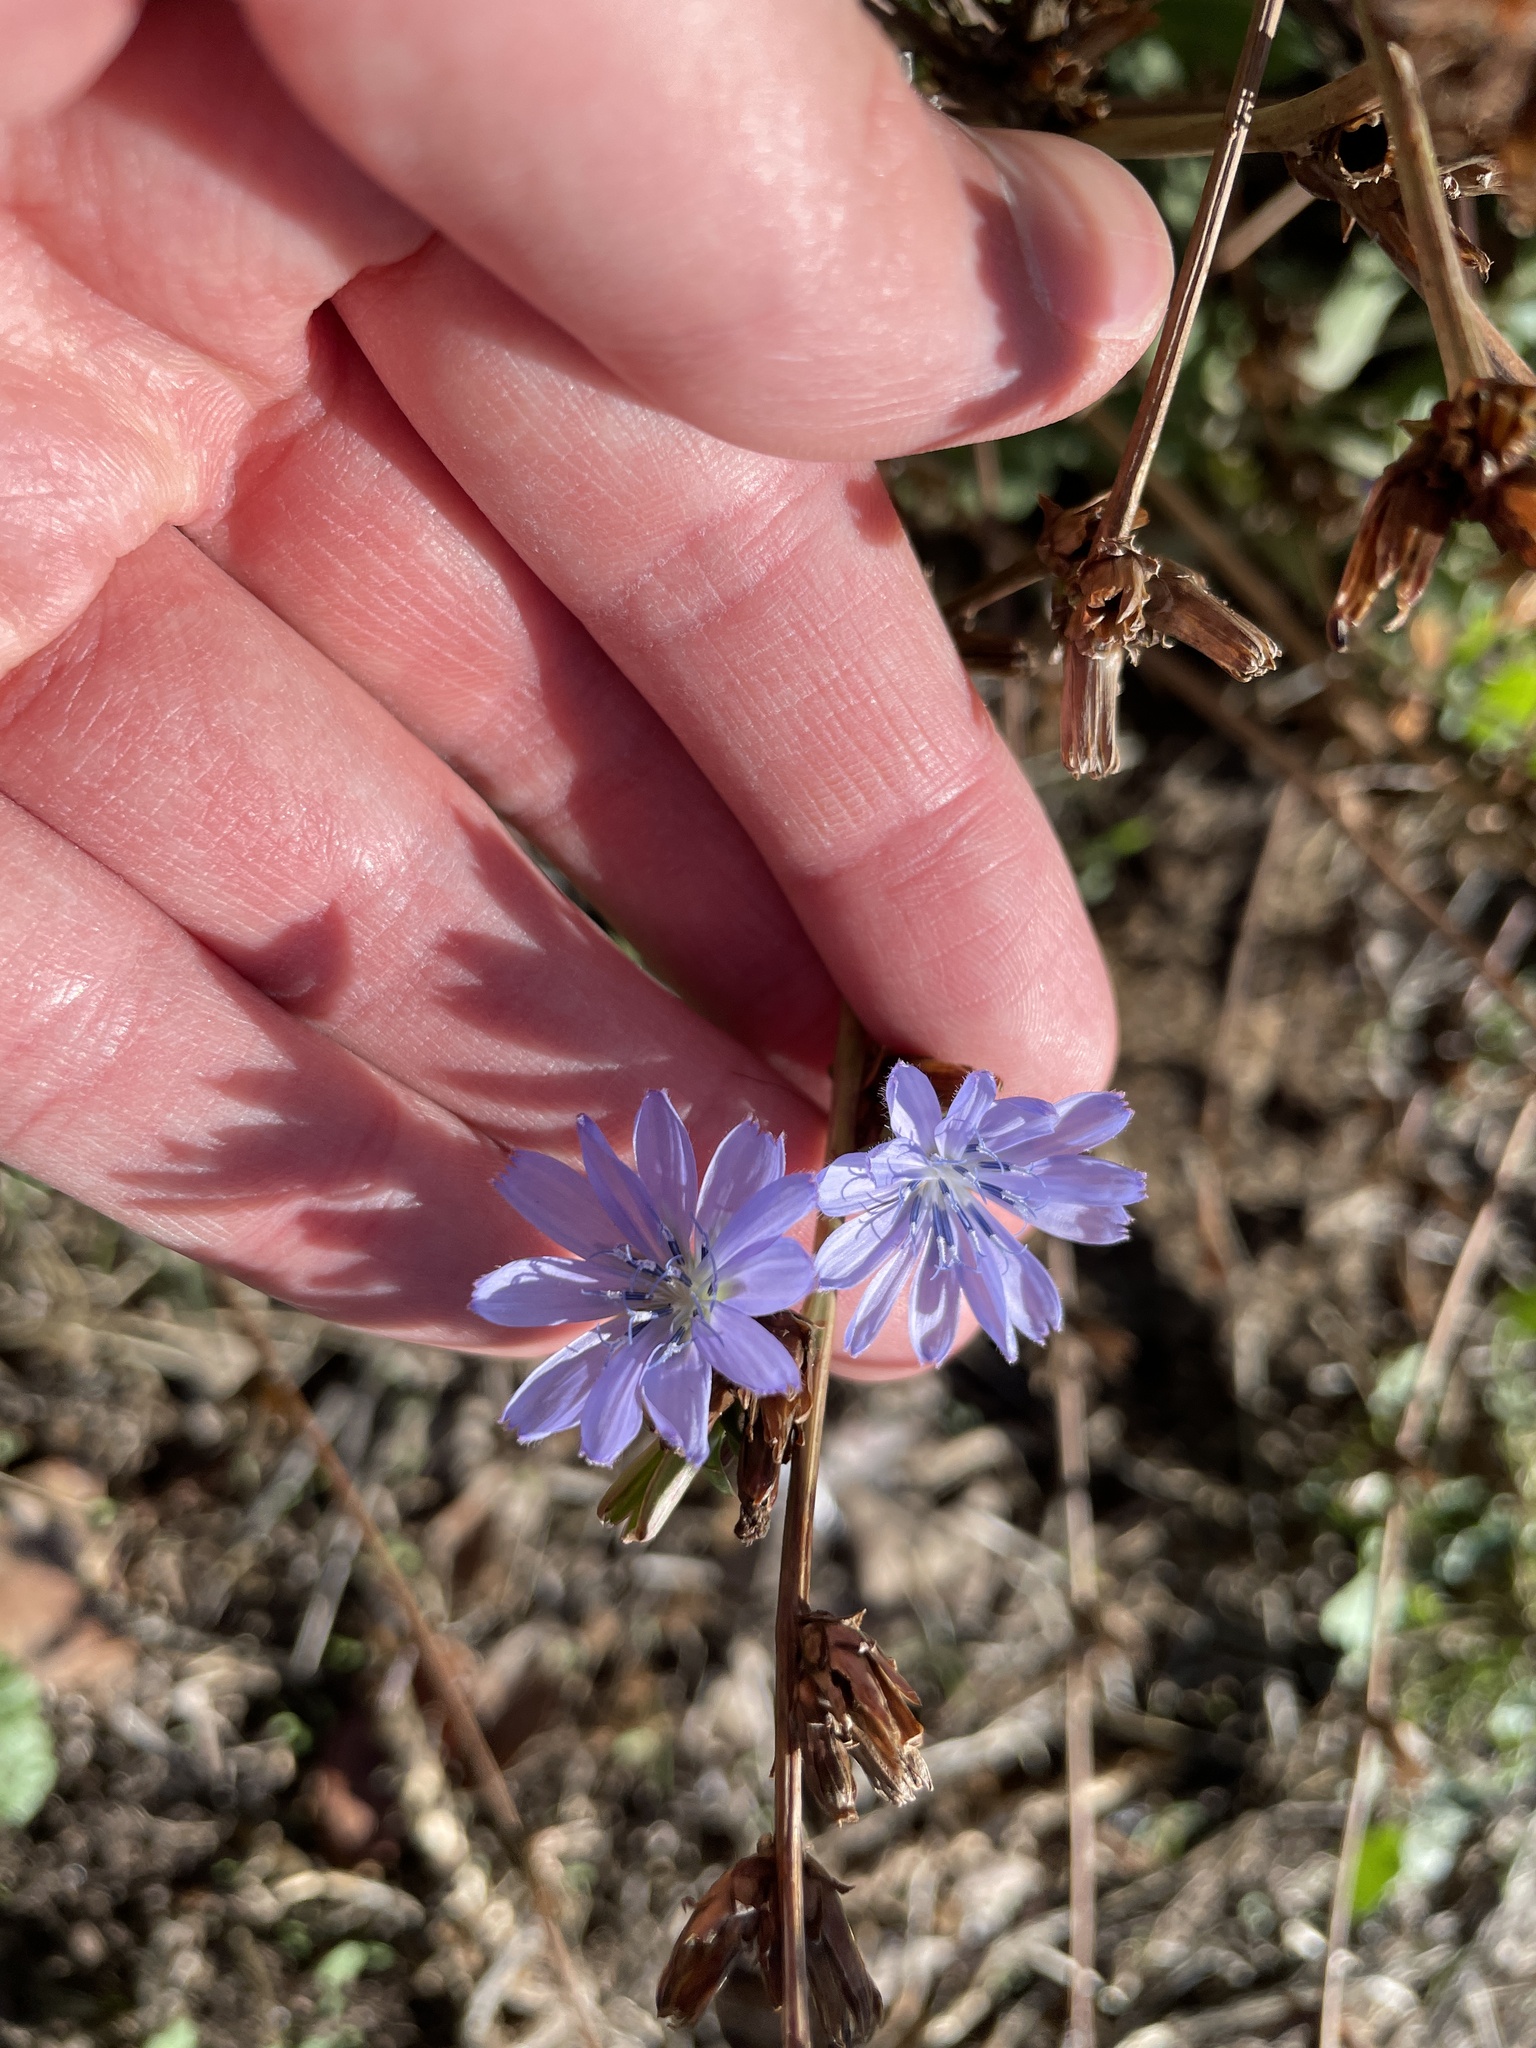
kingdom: Plantae
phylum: Tracheophyta
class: Magnoliopsida
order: Asterales
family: Asteraceae
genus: Cichorium
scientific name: Cichorium intybus
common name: Chicory
